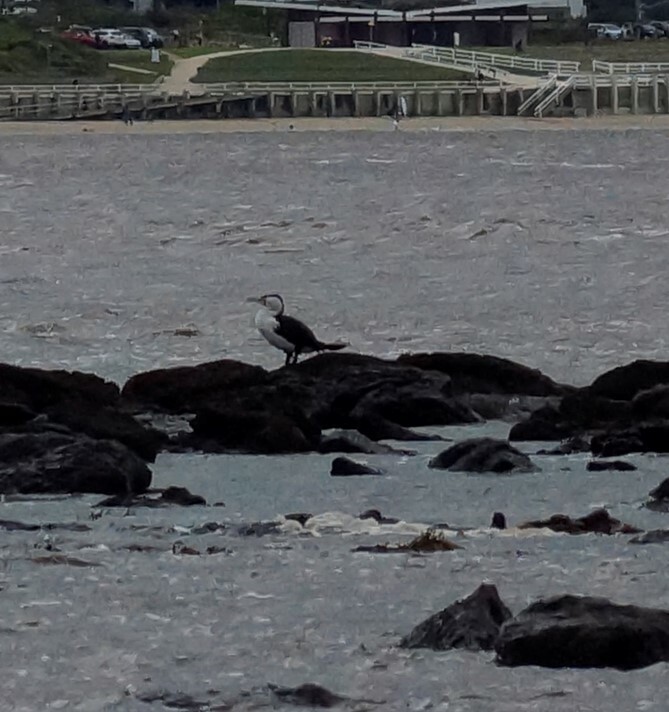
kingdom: Animalia
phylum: Chordata
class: Aves
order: Suliformes
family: Phalacrocoracidae
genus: Phalacrocorax
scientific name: Phalacrocorax varius
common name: Pied cormorant
